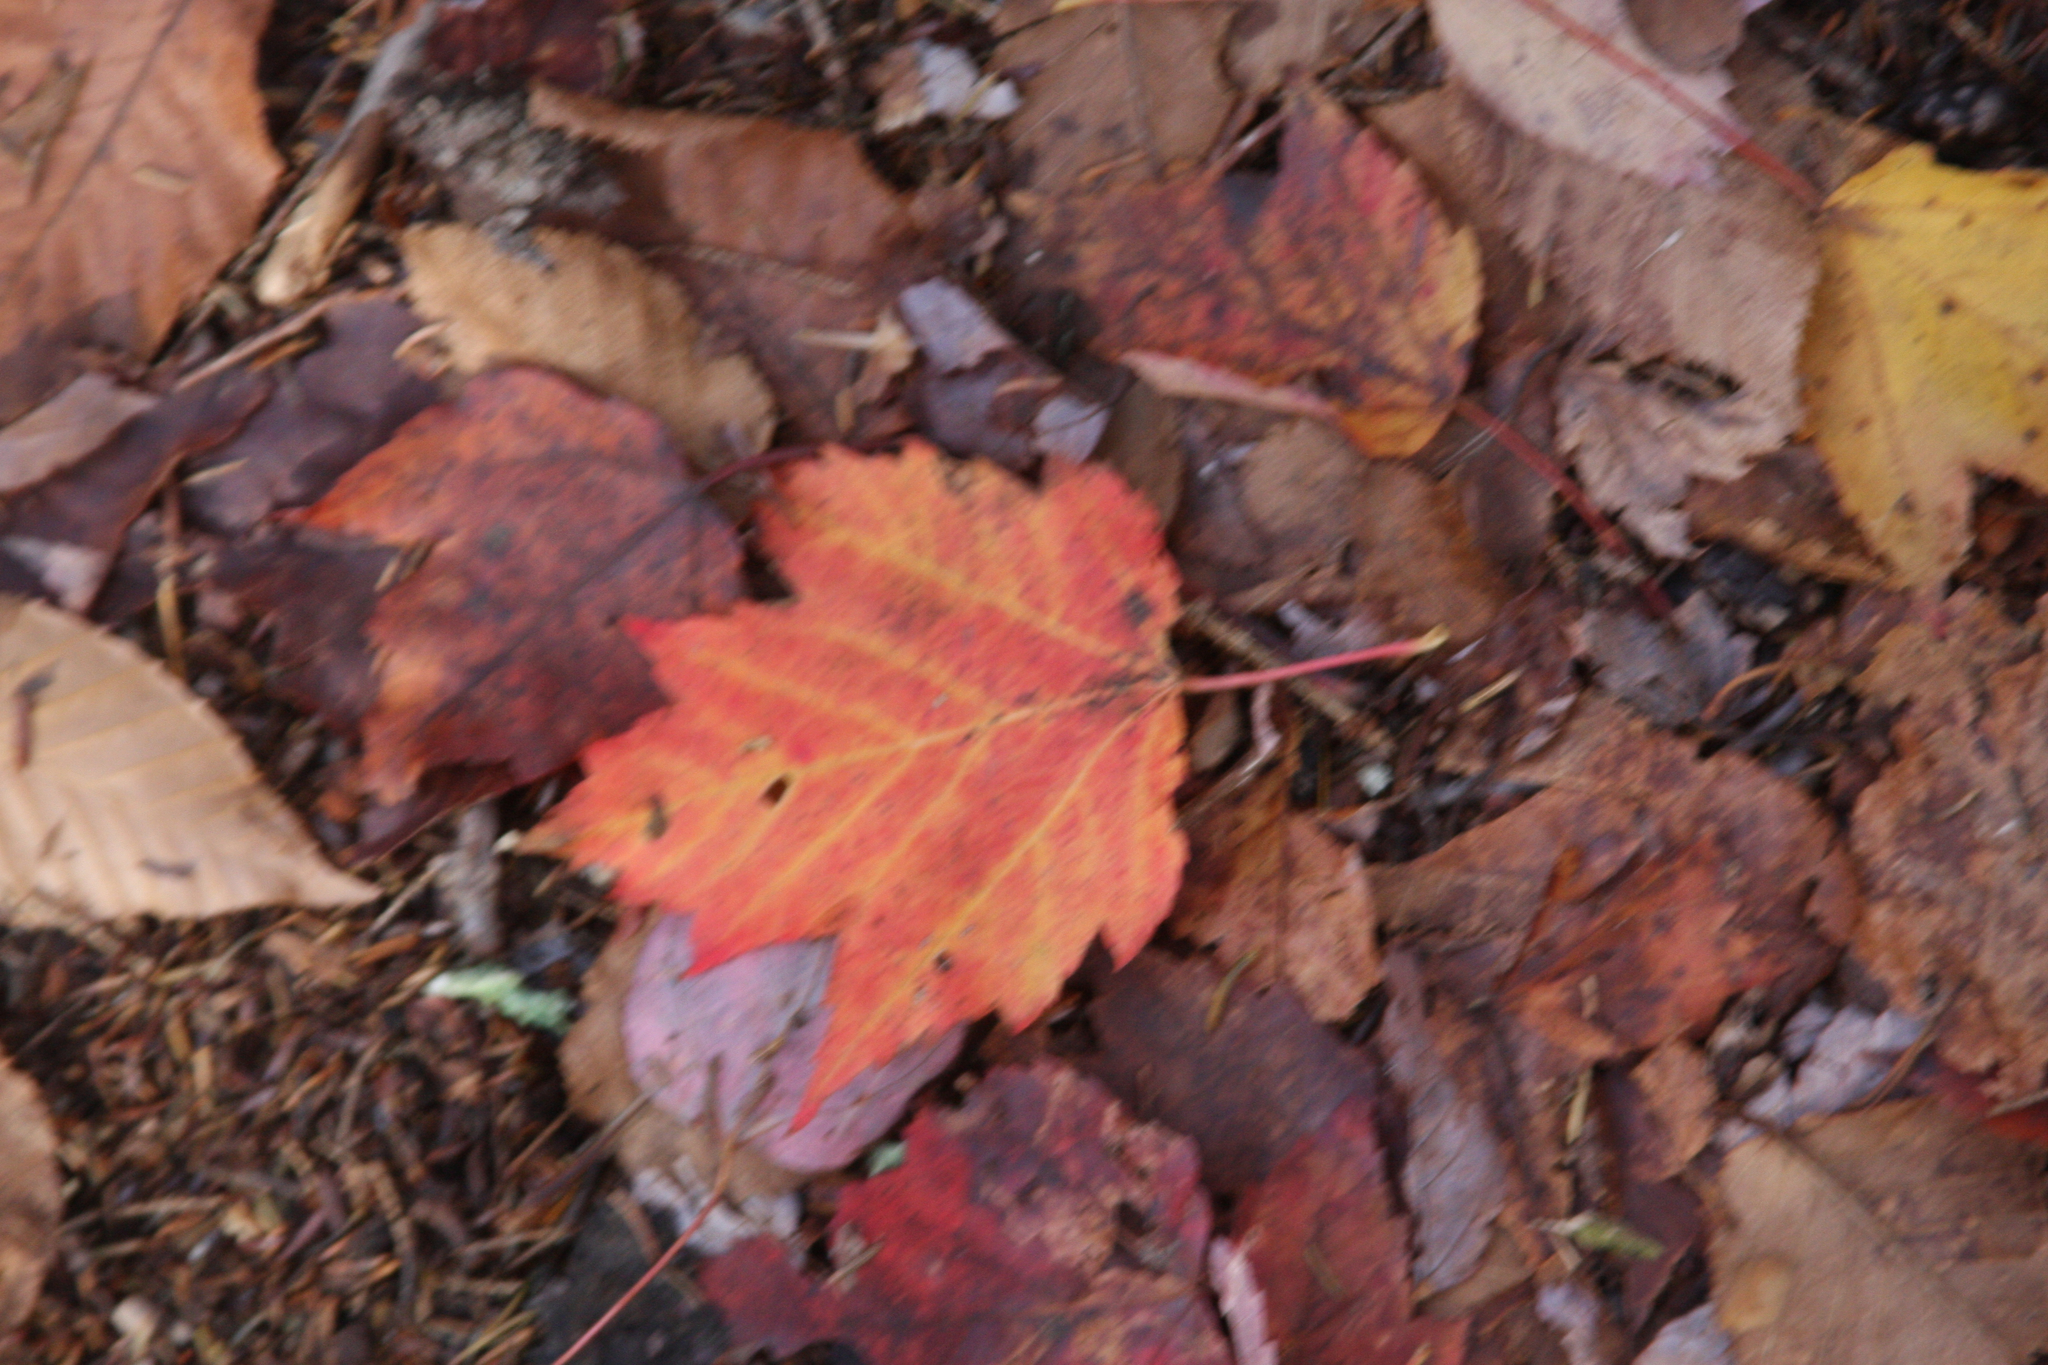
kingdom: Plantae
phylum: Tracheophyta
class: Magnoliopsida
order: Sapindales
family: Sapindaceae
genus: Acer
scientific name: Acer rubrum
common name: Red maple
